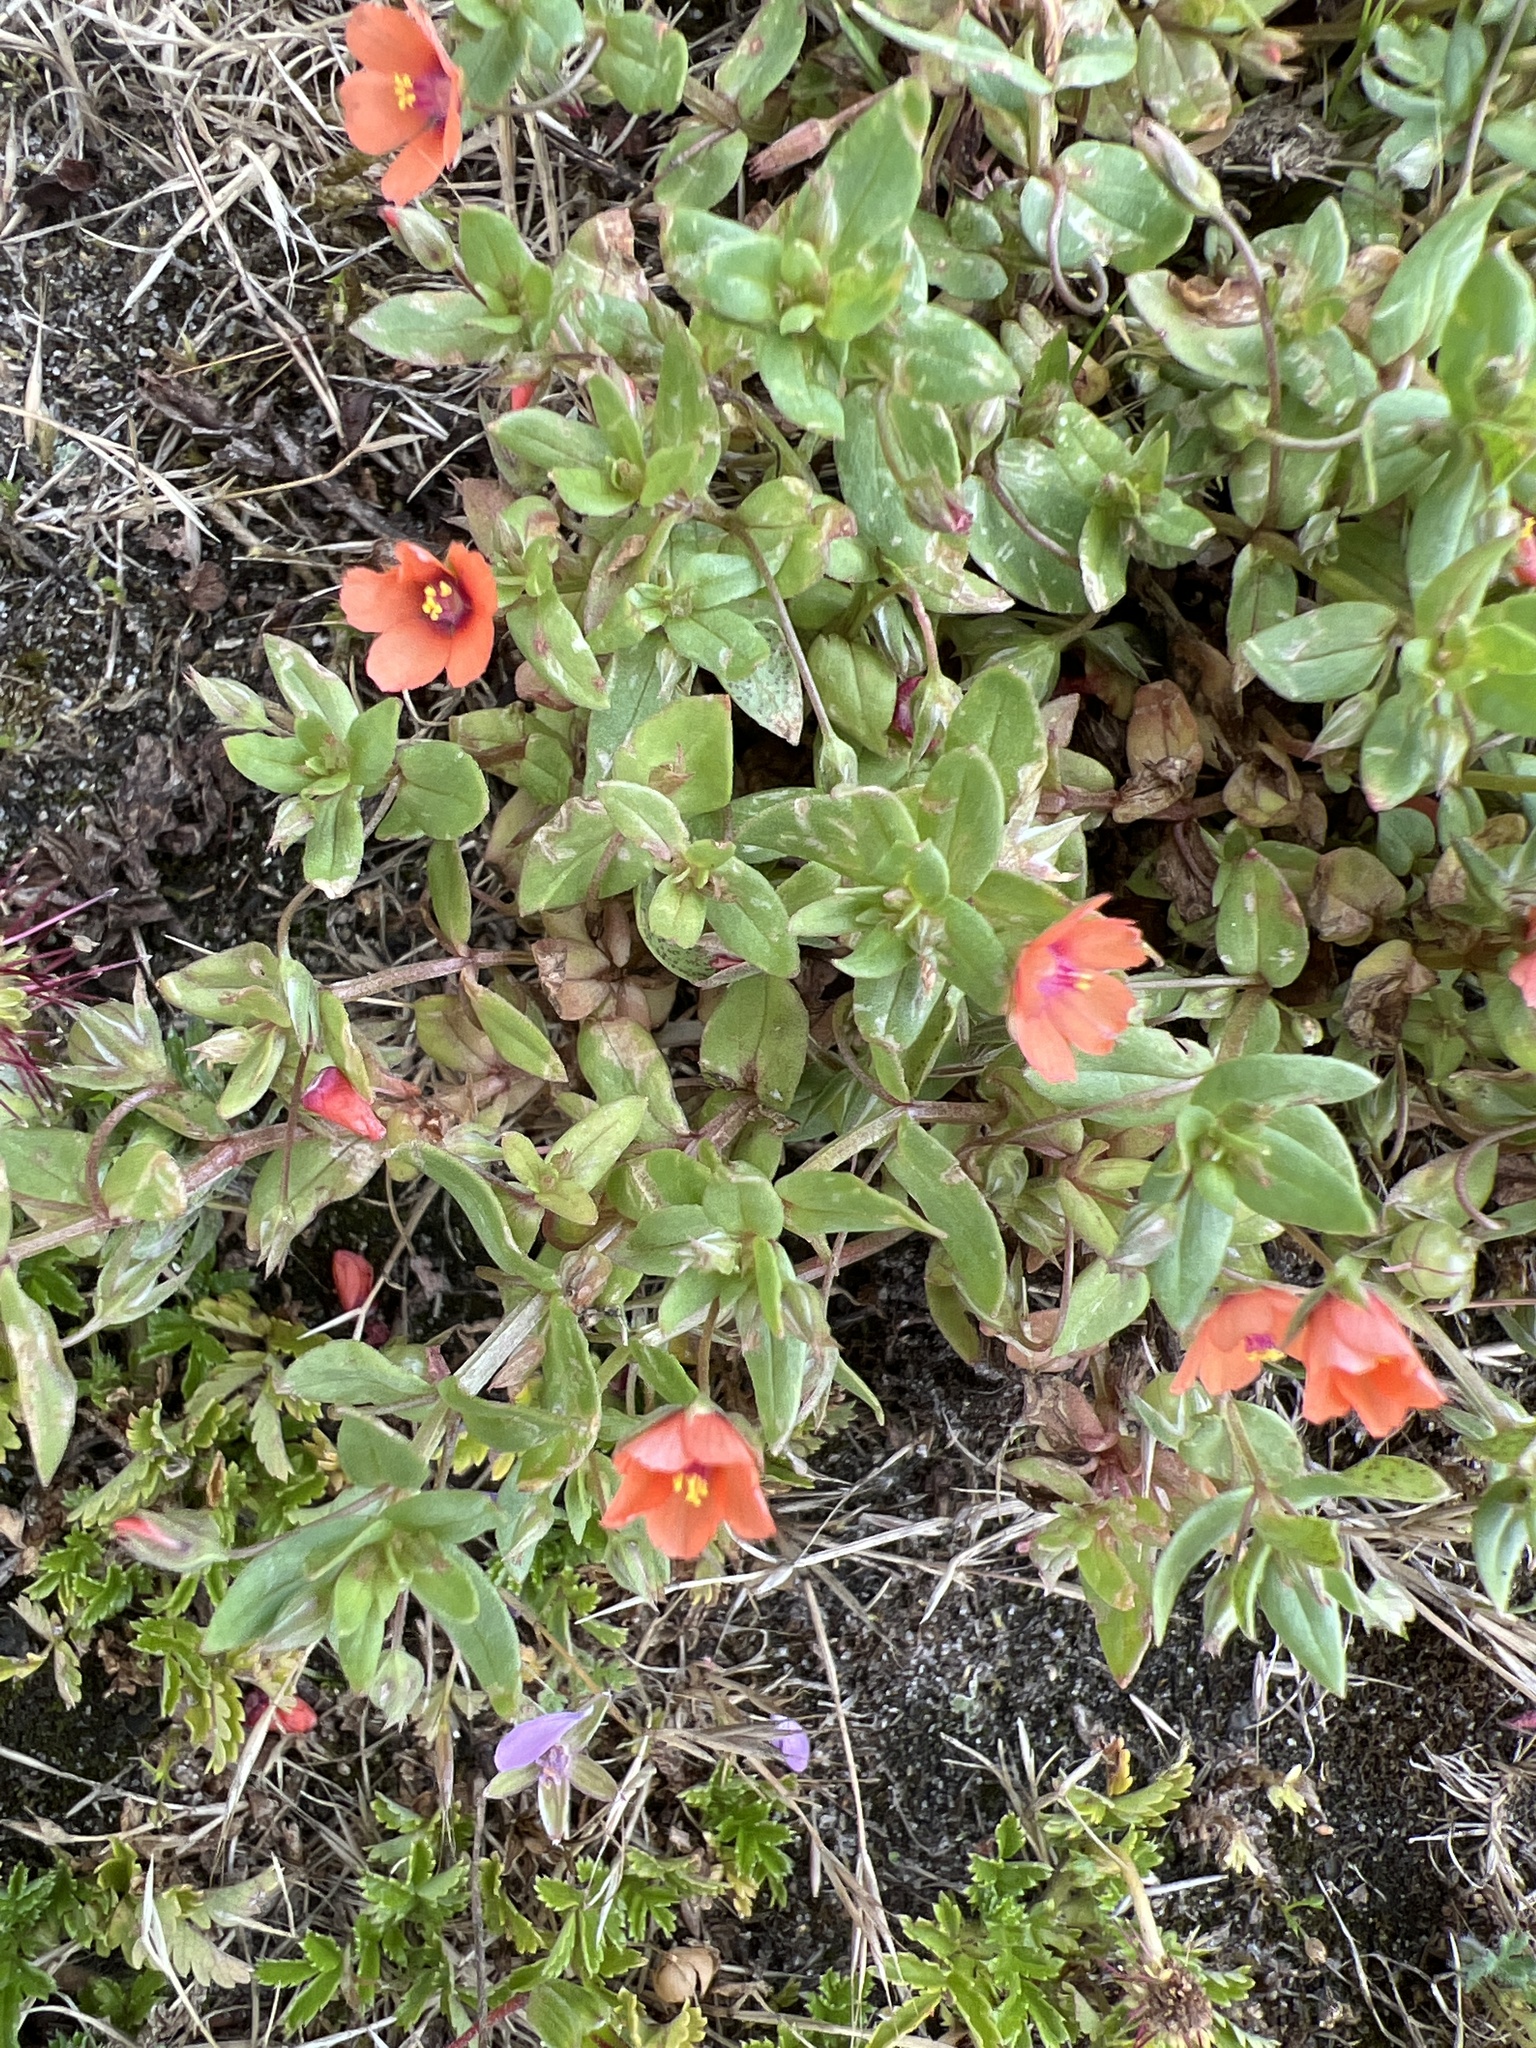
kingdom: Plantae
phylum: Tracheophyta
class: Magnoliopsida
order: Ericales
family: Primulaceae
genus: Lysimachia
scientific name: Lysimachia arvensis
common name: Scarlet pimpernel
